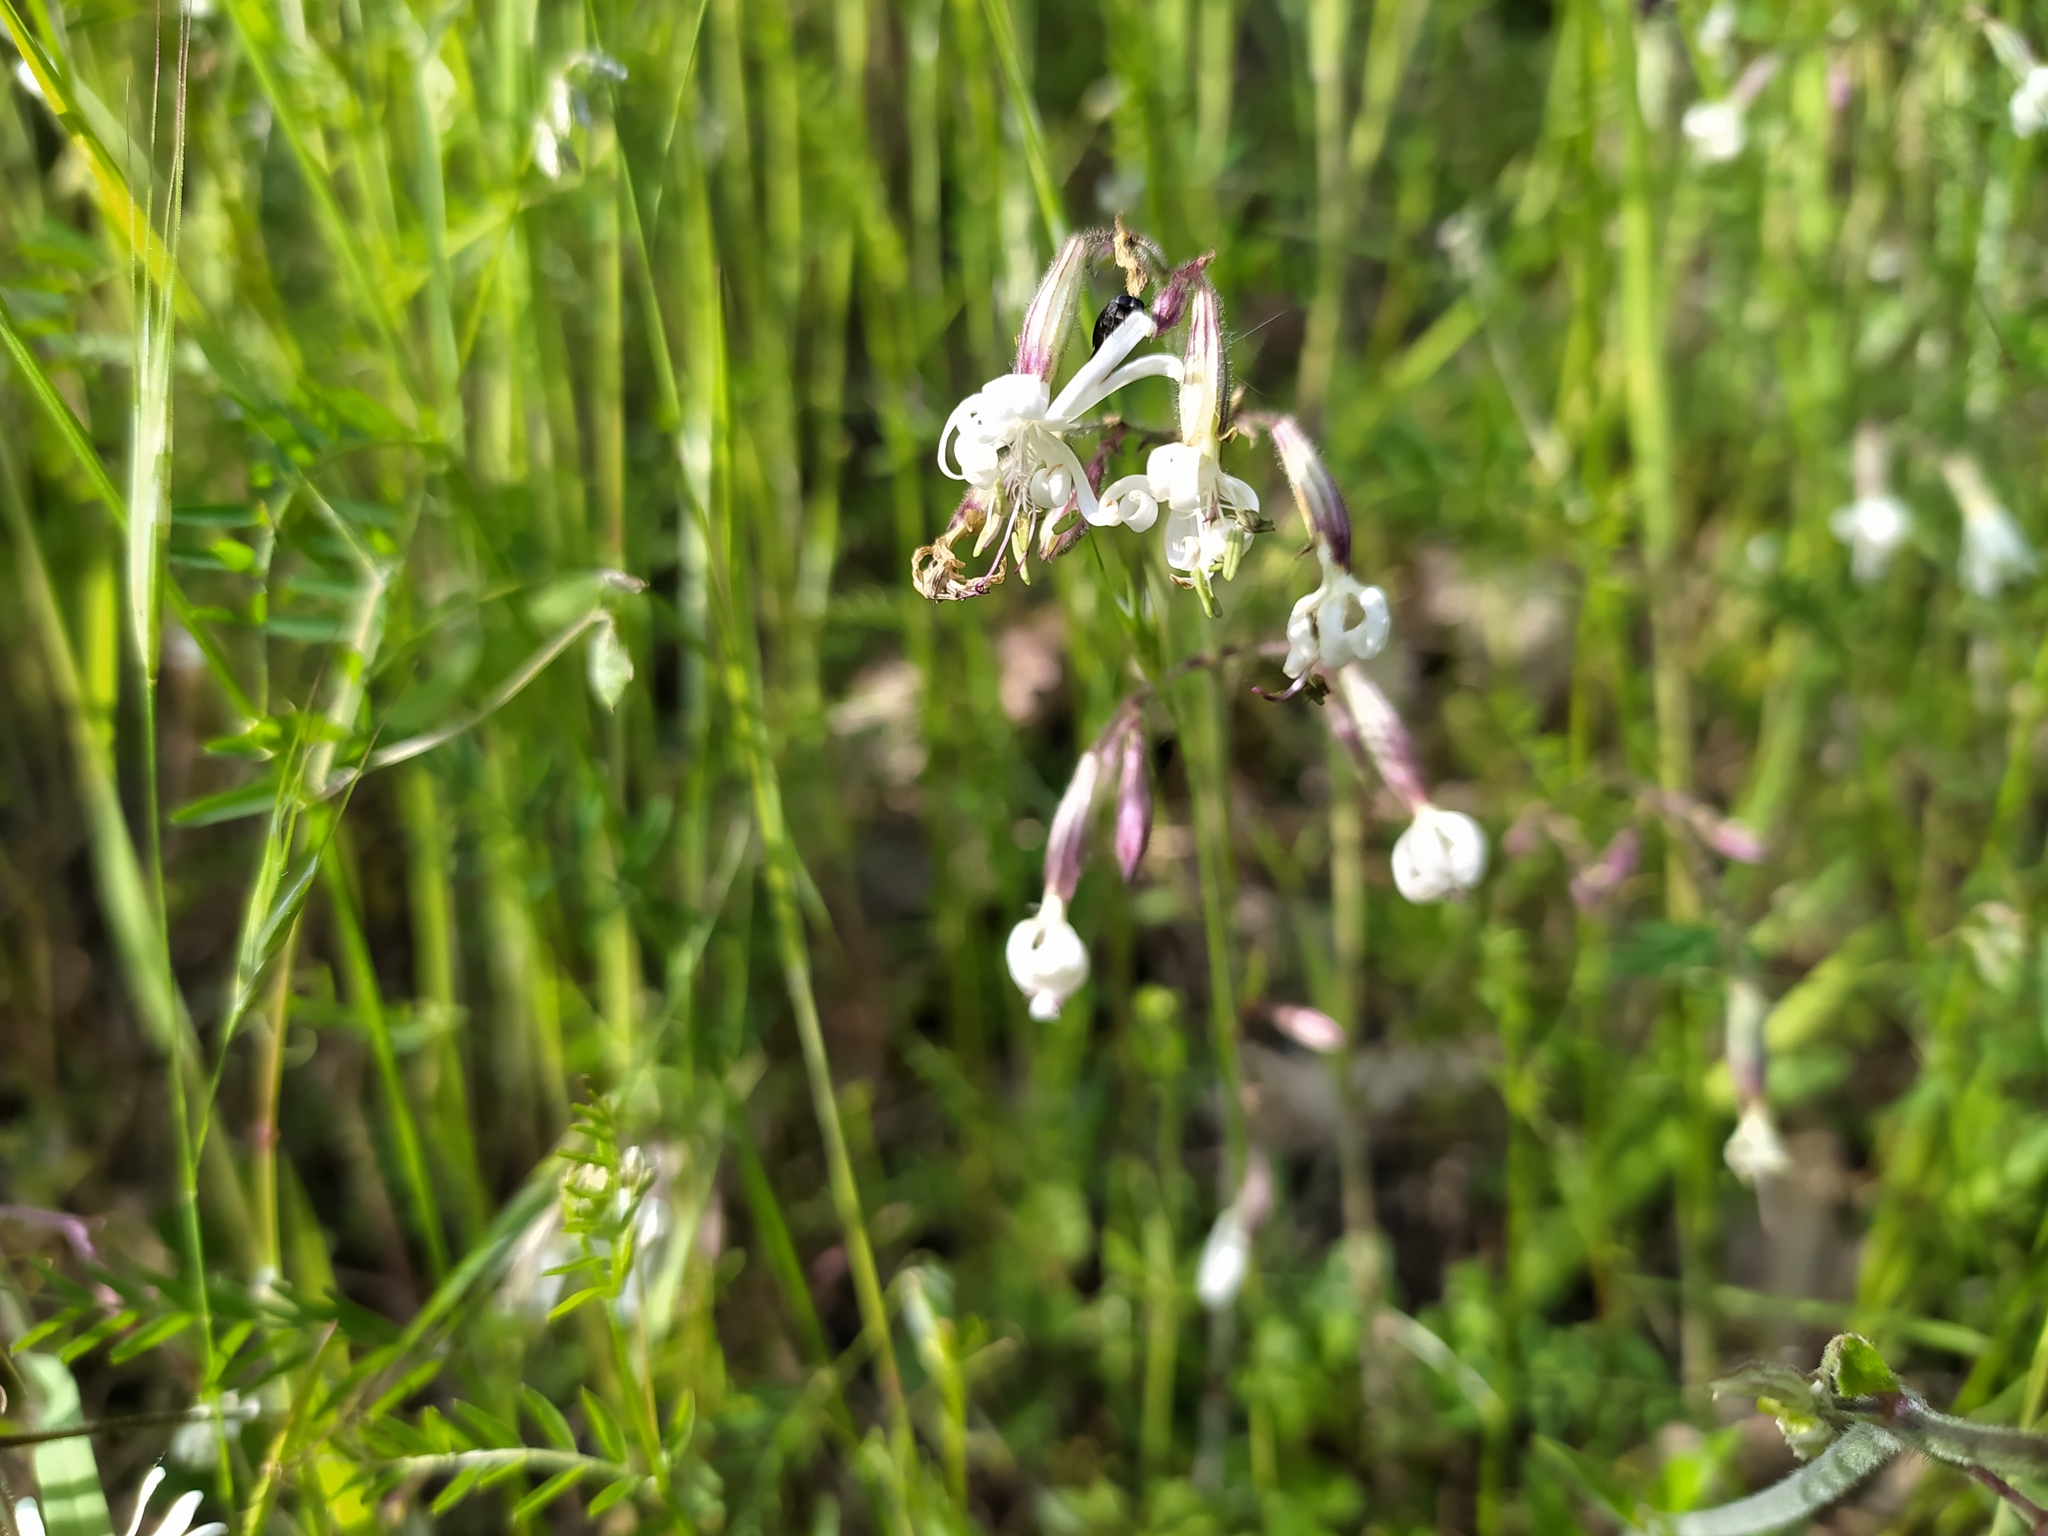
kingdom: Plantae
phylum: Tracheophyta
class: Magnoliopsida
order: Caryophyllales
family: Caryophyllaceae
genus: Silene
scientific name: Silene nutans
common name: Nottingham catchfly
